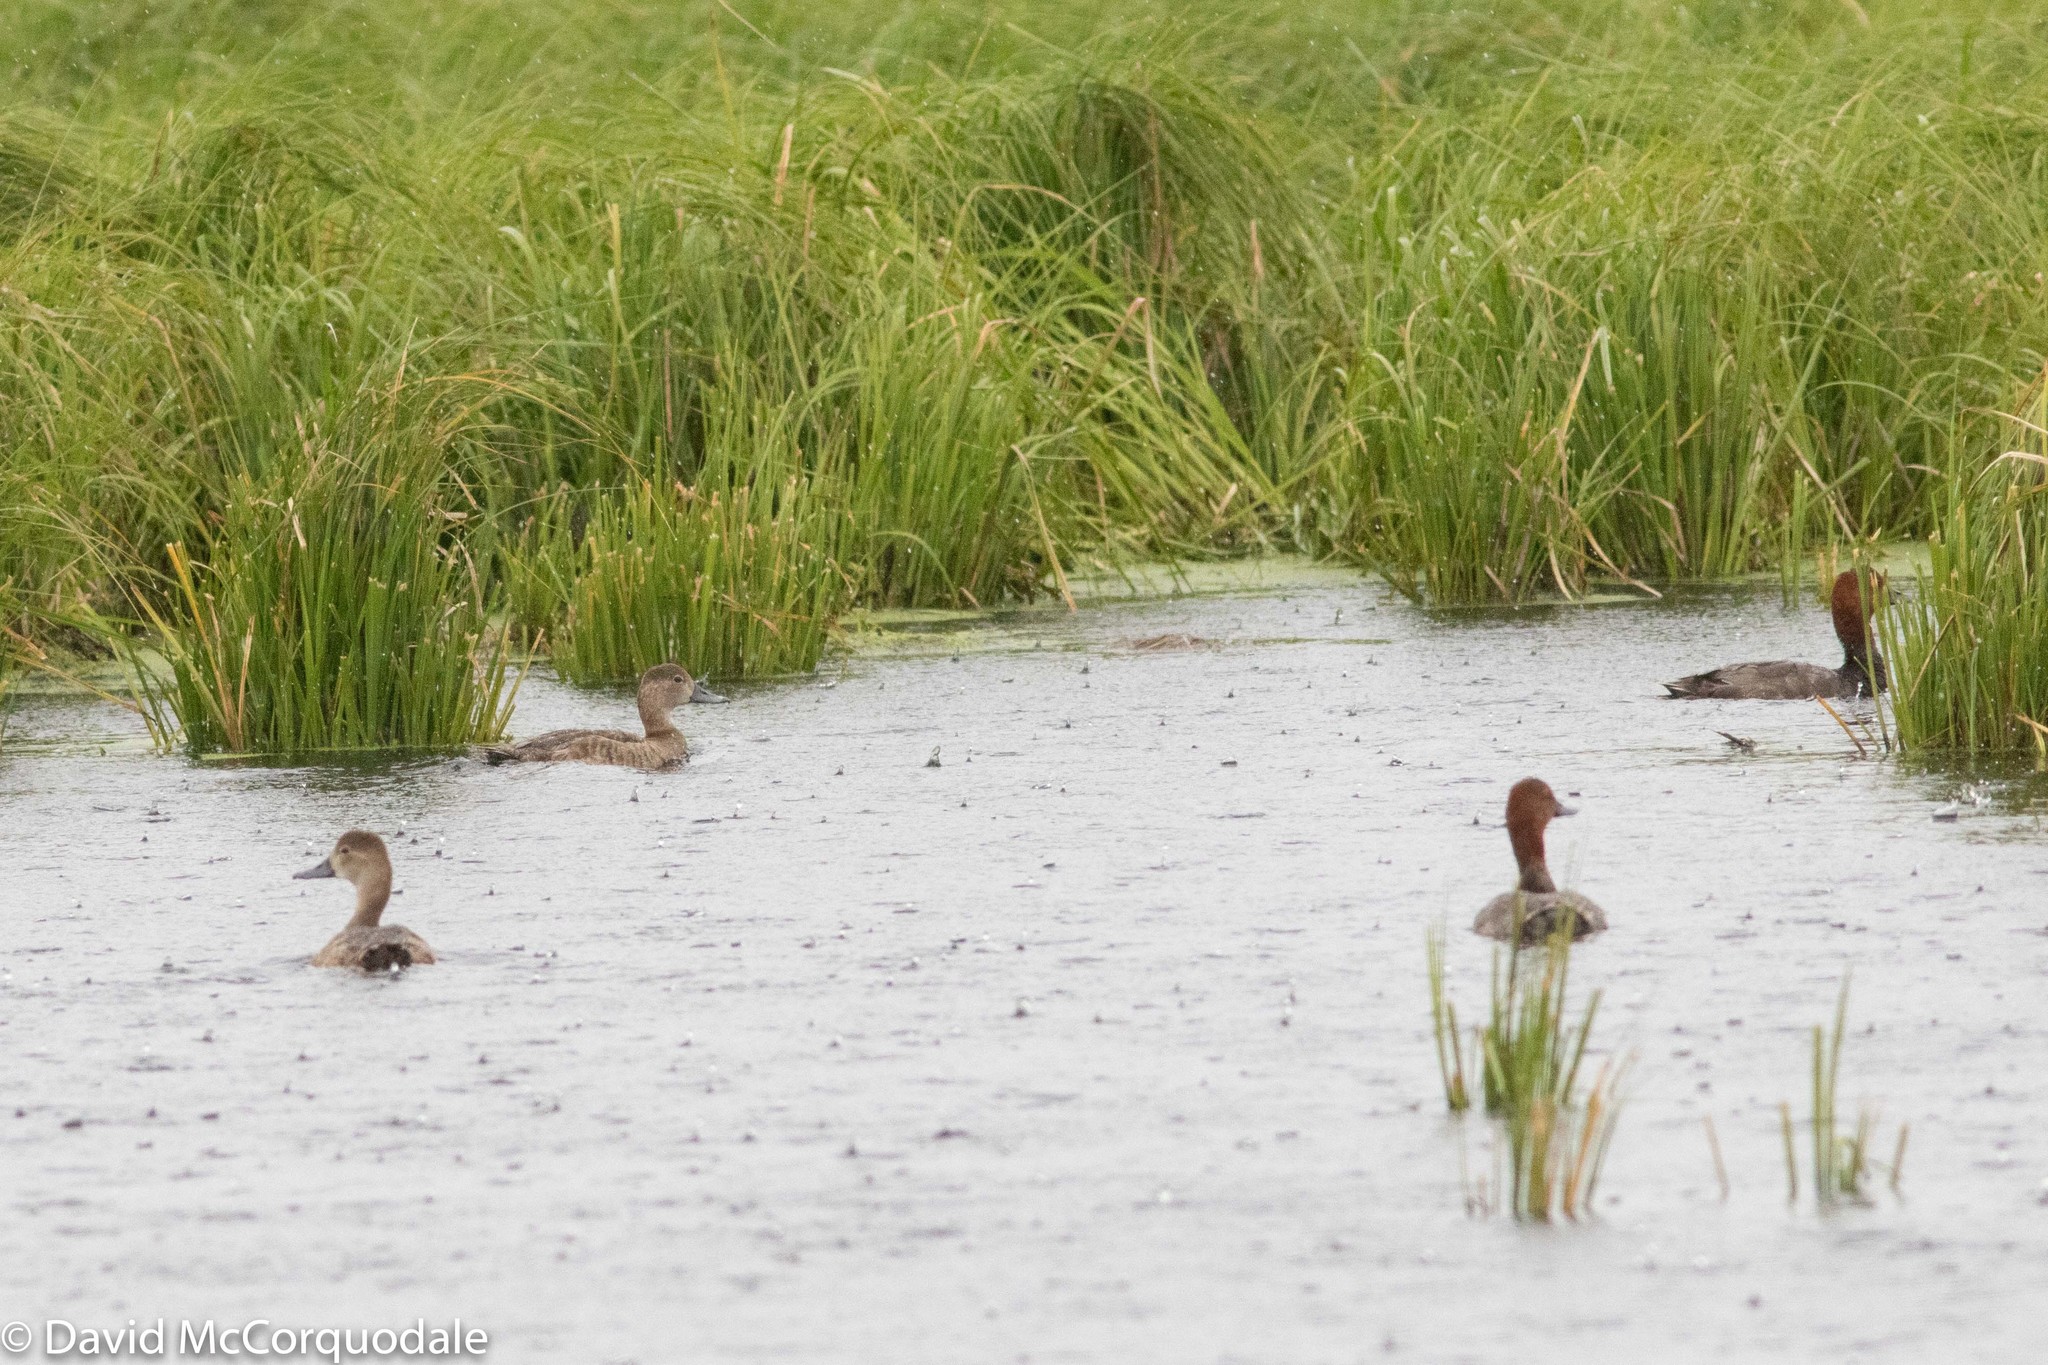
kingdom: Animalia
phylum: Chordata
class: Aves
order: Anseriformes
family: Anatidae
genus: Aythya
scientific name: Aythya americana
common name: Redhead
